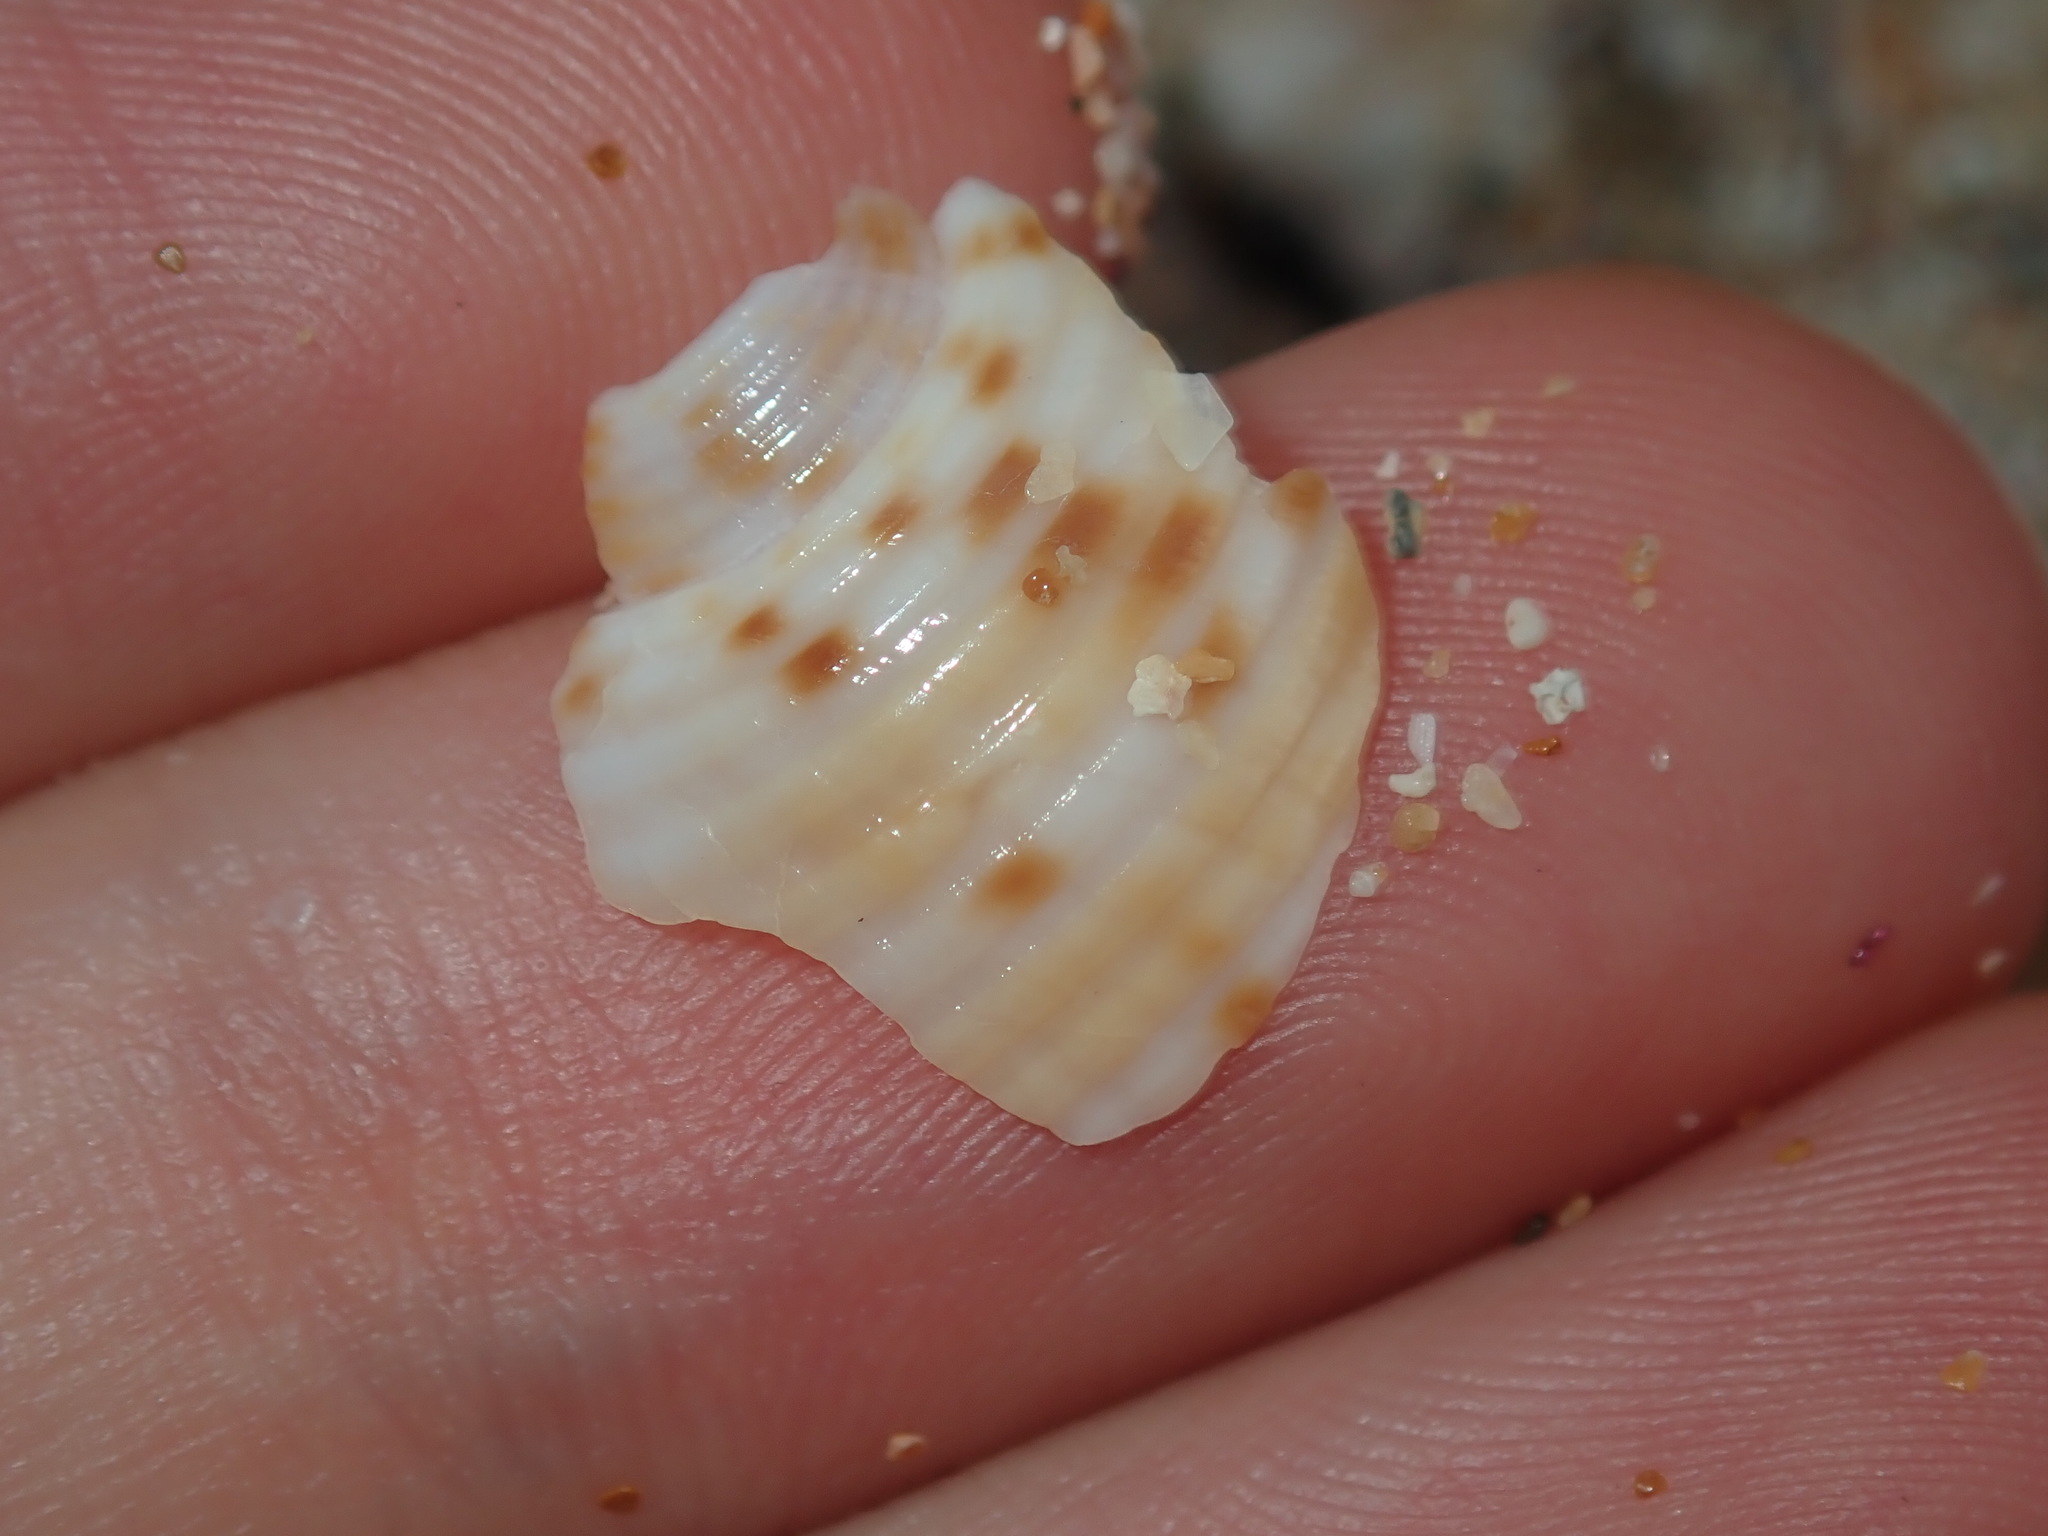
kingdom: Animalia
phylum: Mollusca
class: Gastropoda
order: Littorinimorpha
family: Tonnidae
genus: Tonna
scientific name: Tonna tankervillii
